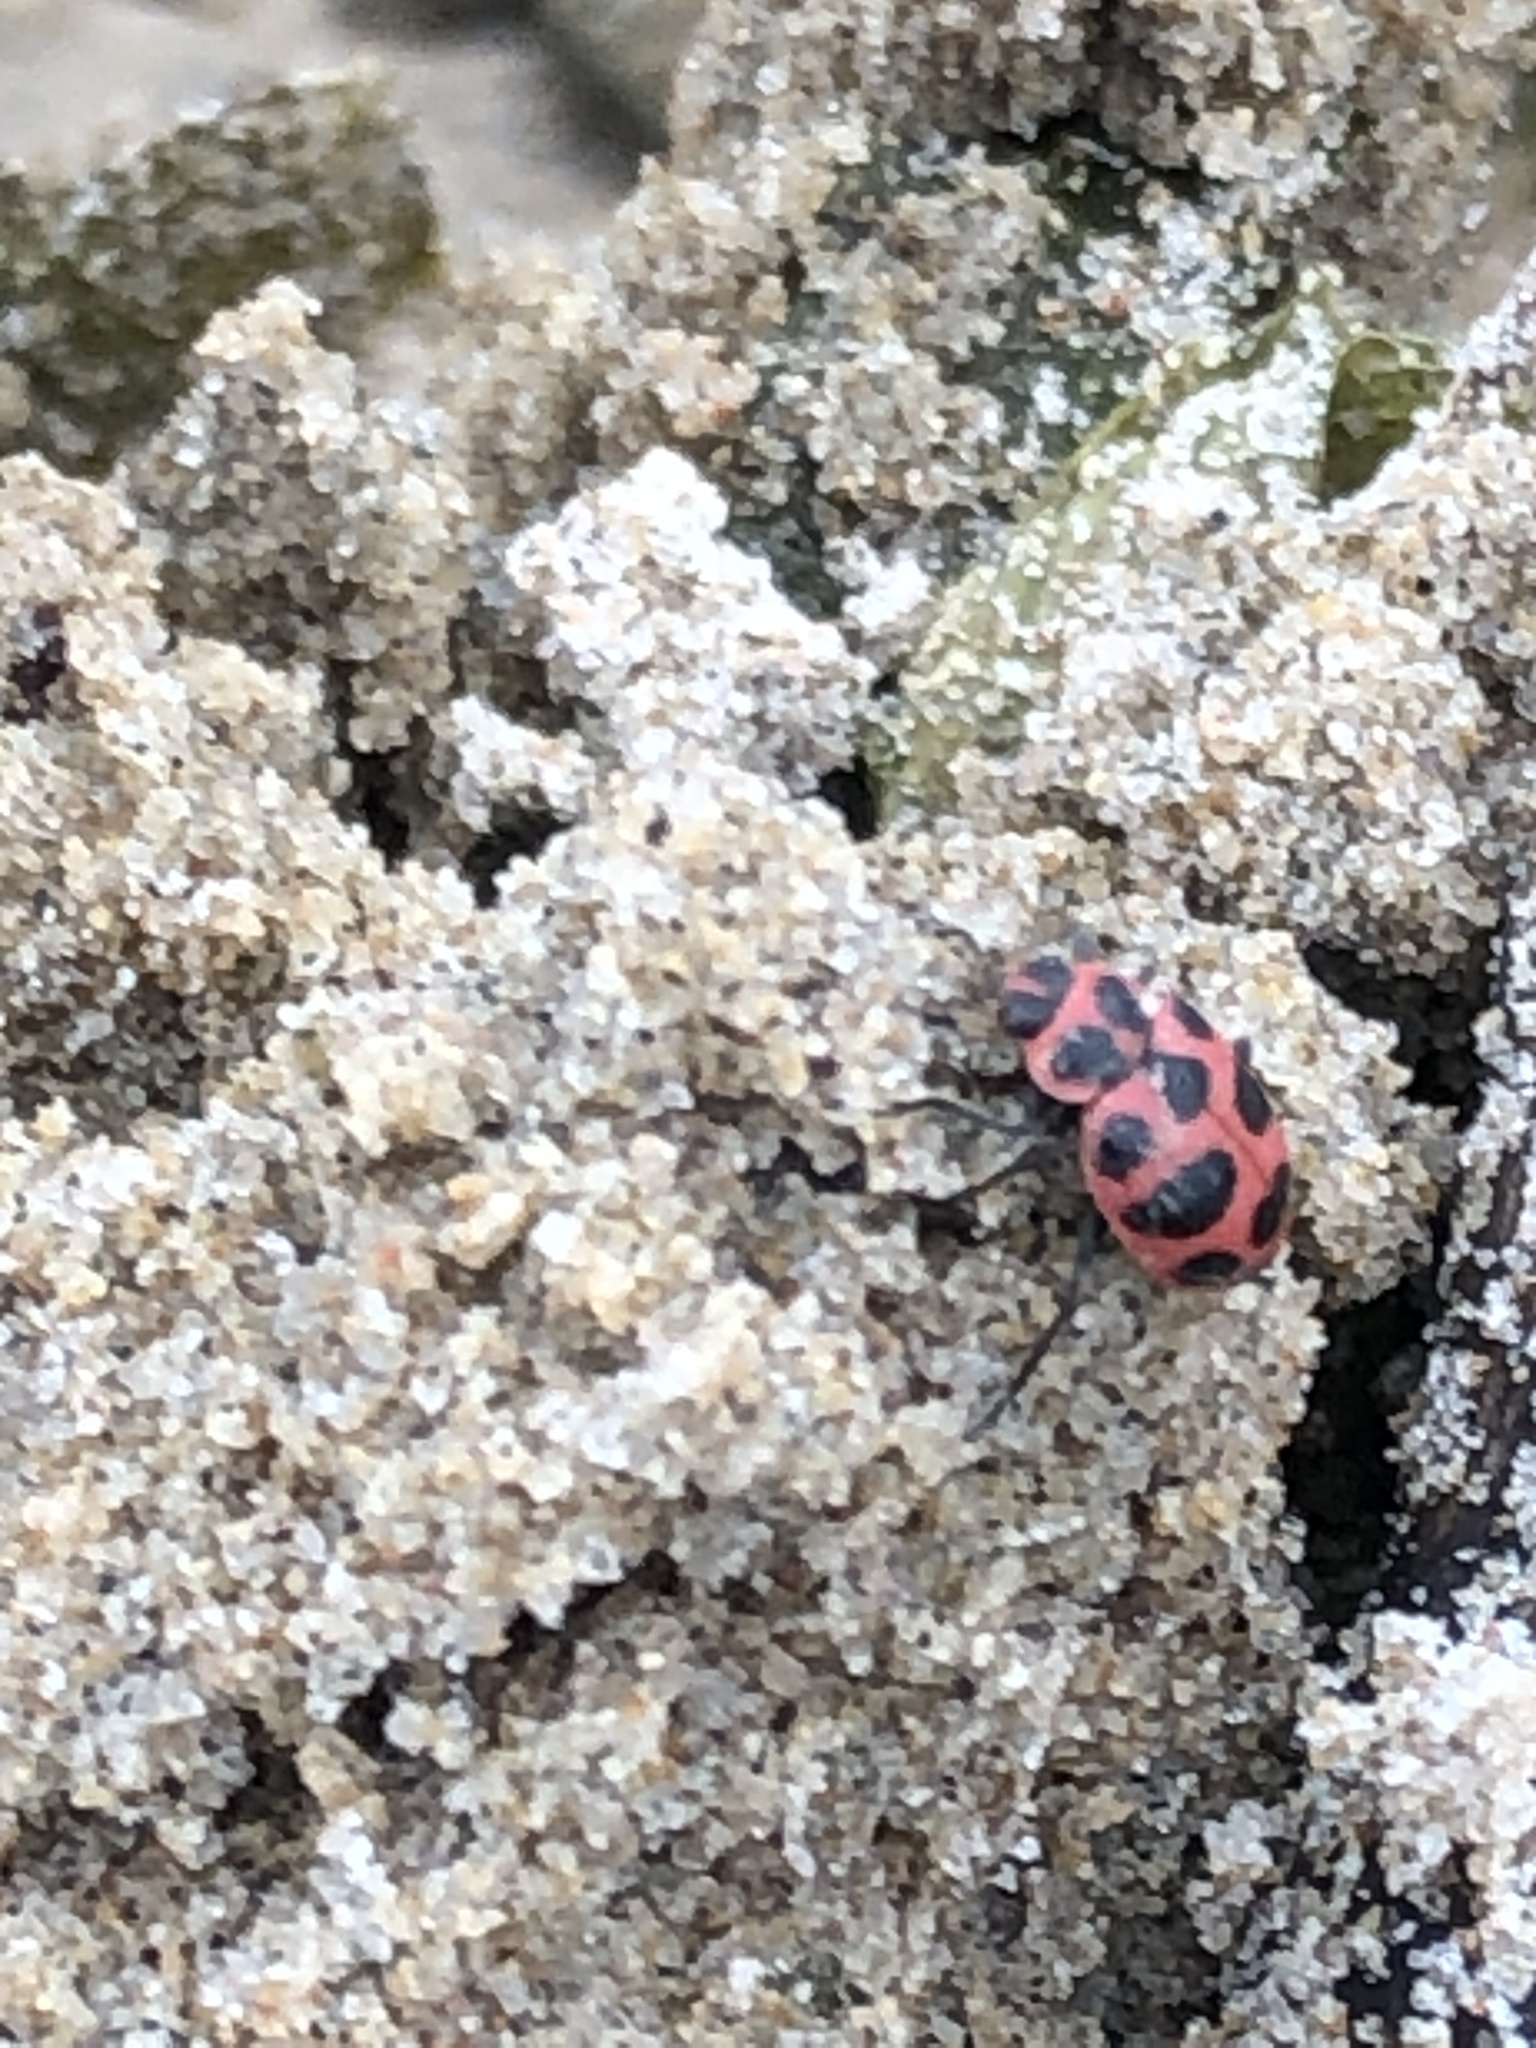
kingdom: Animalia
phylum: Arthropoda
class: Insecta
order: Coleoptera
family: Coccinellidae
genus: Coleomegilla
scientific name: Coleomegilla maculata
